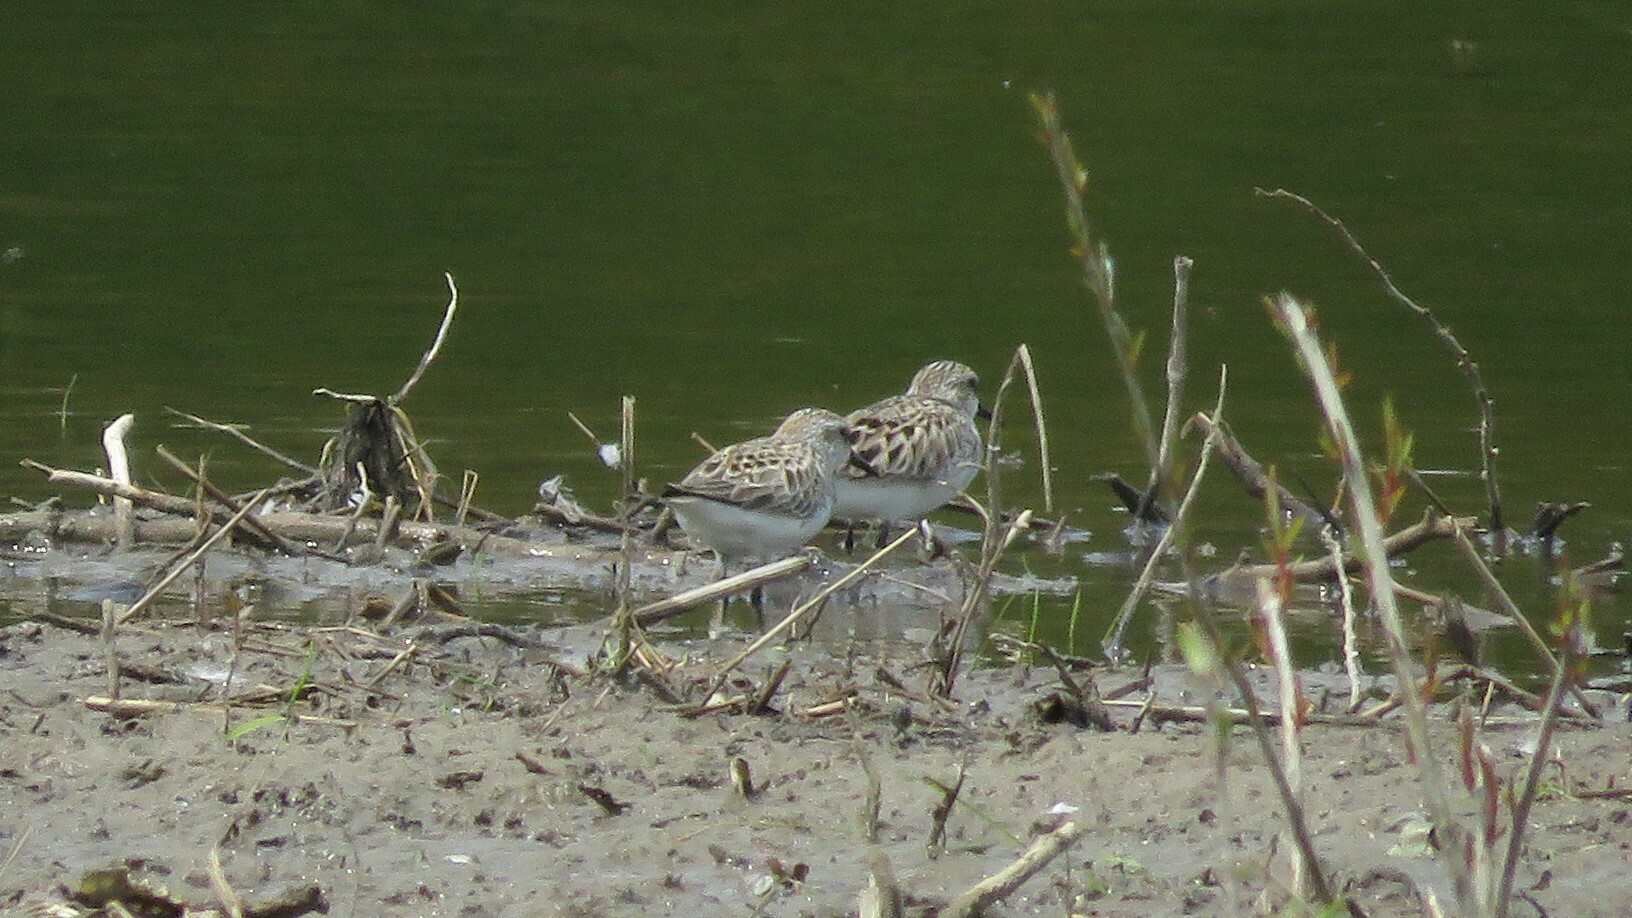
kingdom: Animalia
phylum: Chordata
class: Aves
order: Charadriiformes
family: Scolopacidae
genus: Calidris
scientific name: Calidris pusilla
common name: Semipalmated sandpiper
